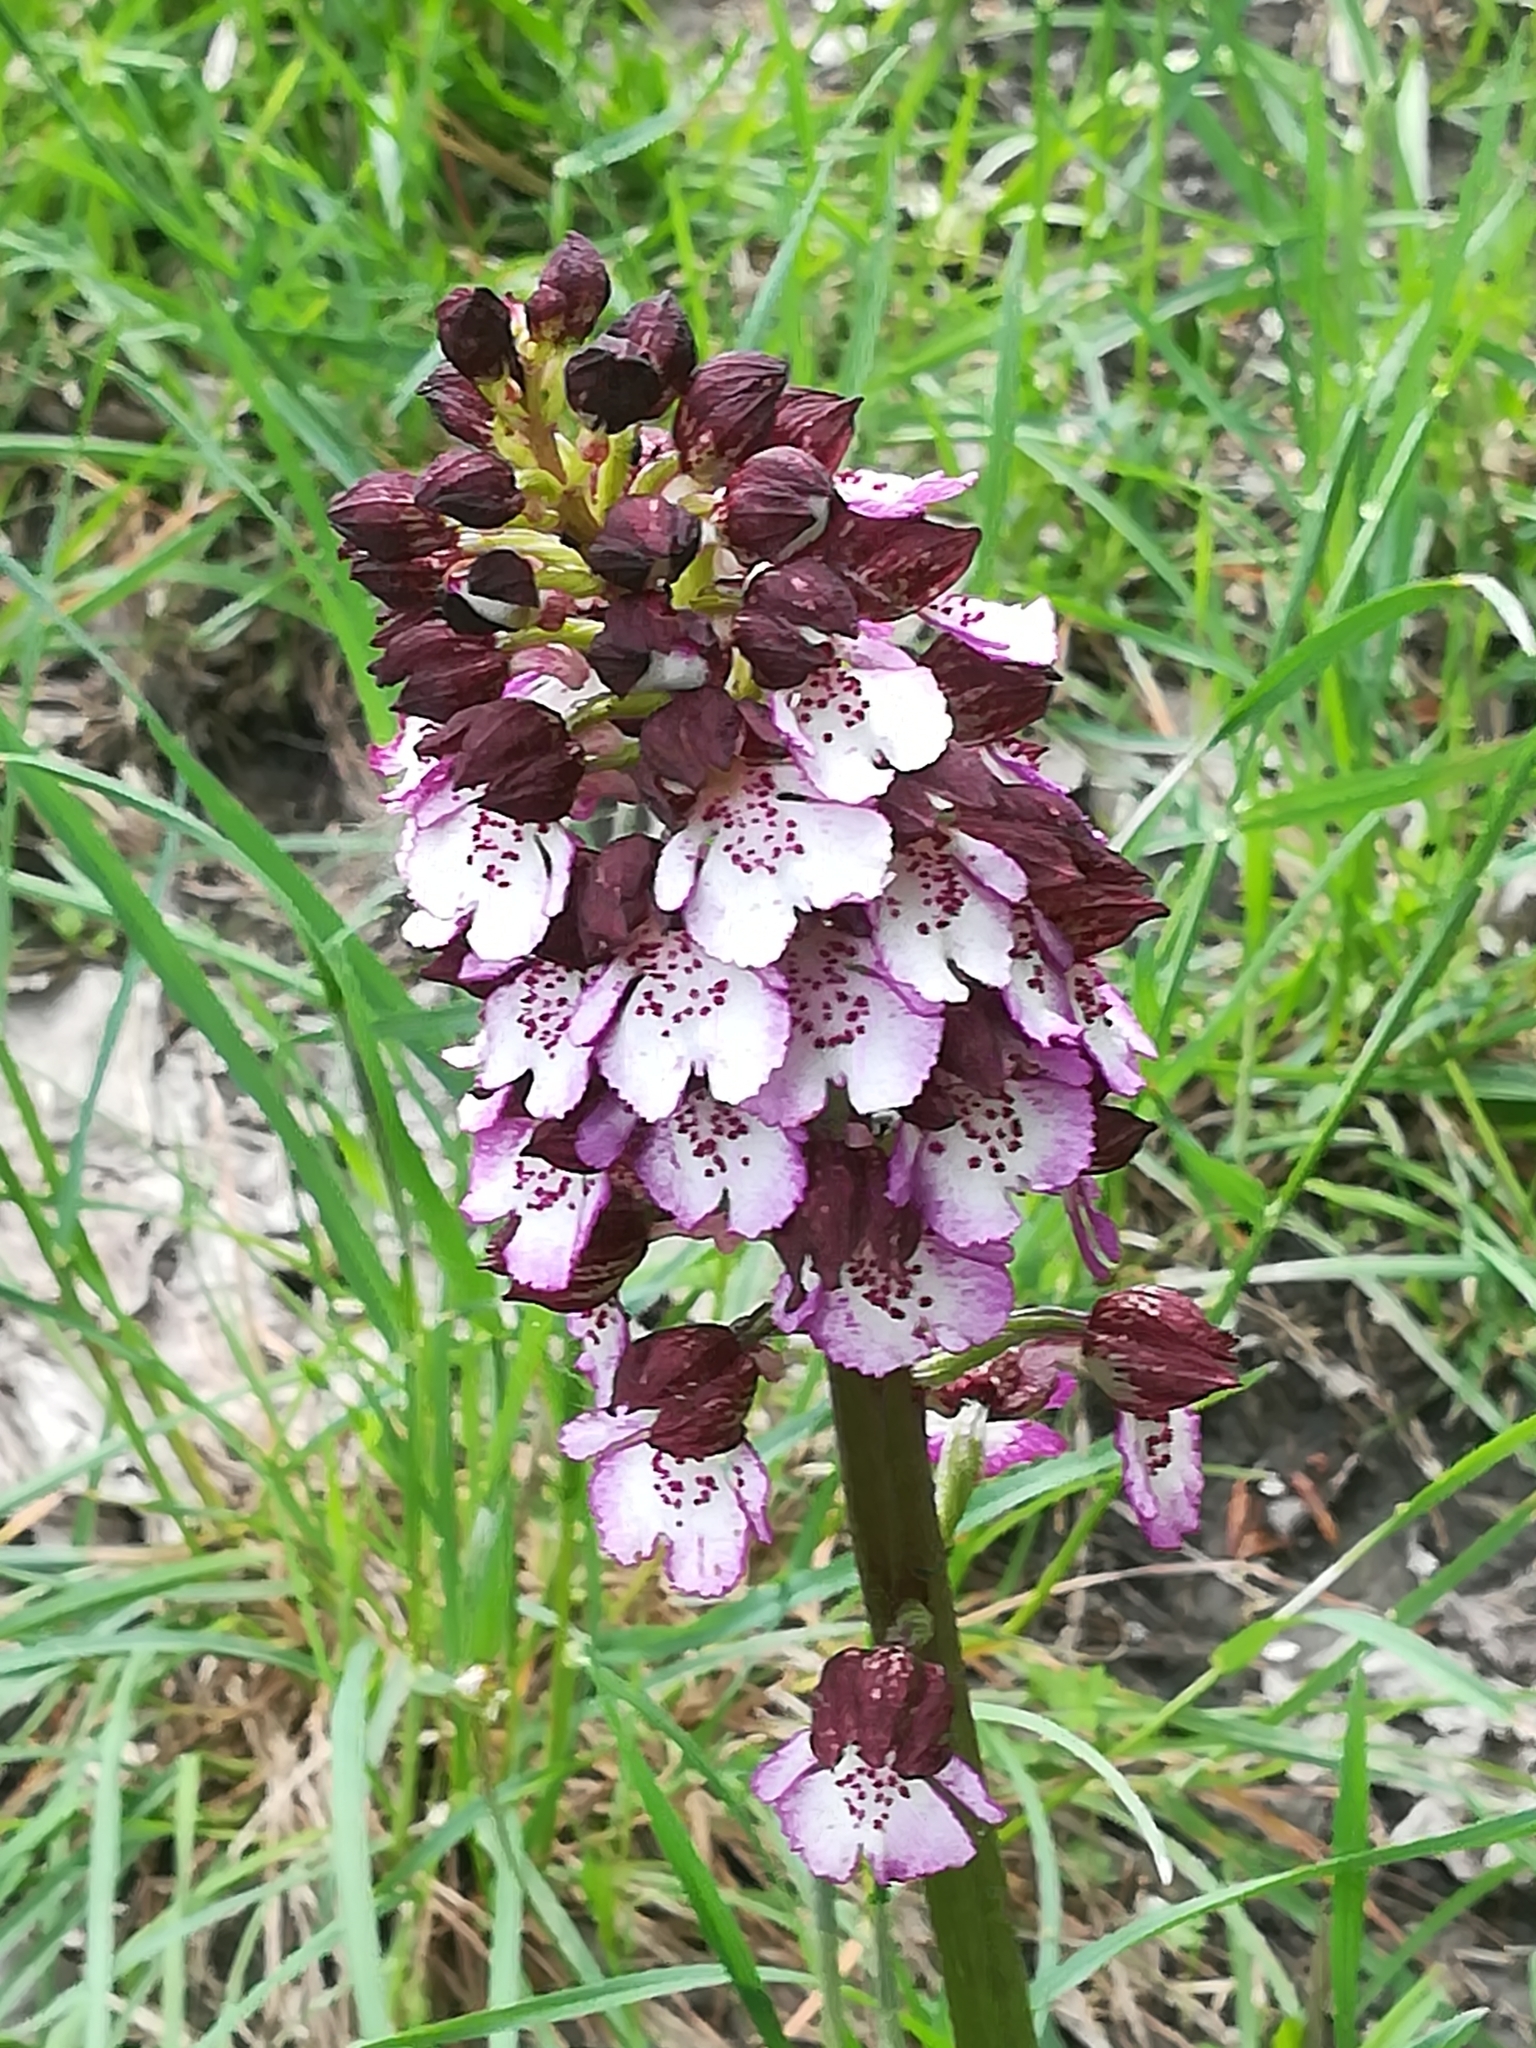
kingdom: Plantae
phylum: Tracheophyta
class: Liliopsida
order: Asparagales
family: Orchidaceae
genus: Orchis
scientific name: Orchis purpurea
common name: Lady orchid
